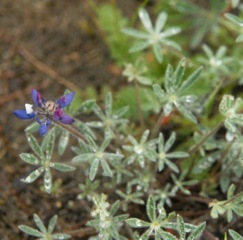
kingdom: Plantae
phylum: Tracheophyta
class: Magnoliopsida
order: Fabales
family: Fabaceae
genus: Lupinus
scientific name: Lupinus bicolor
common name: Miniature lupine
